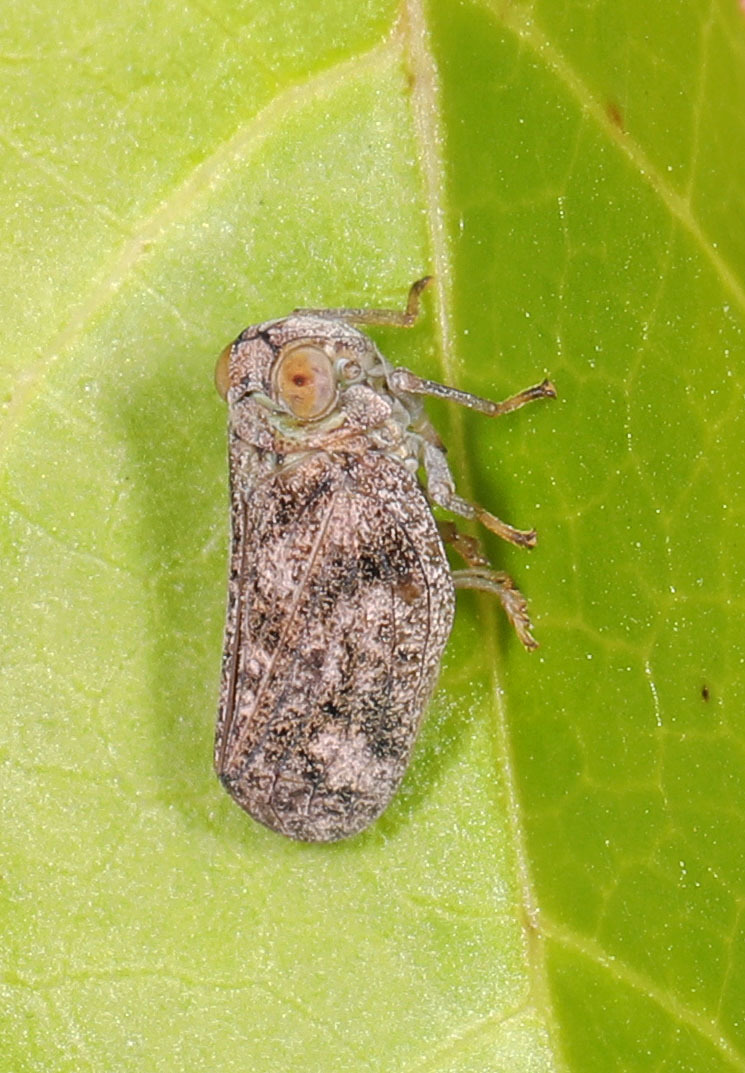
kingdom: Animalia
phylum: Arthropoda
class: Insecta
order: Hemiptera
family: Issidae
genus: Thionia
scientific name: Thionia bullata
